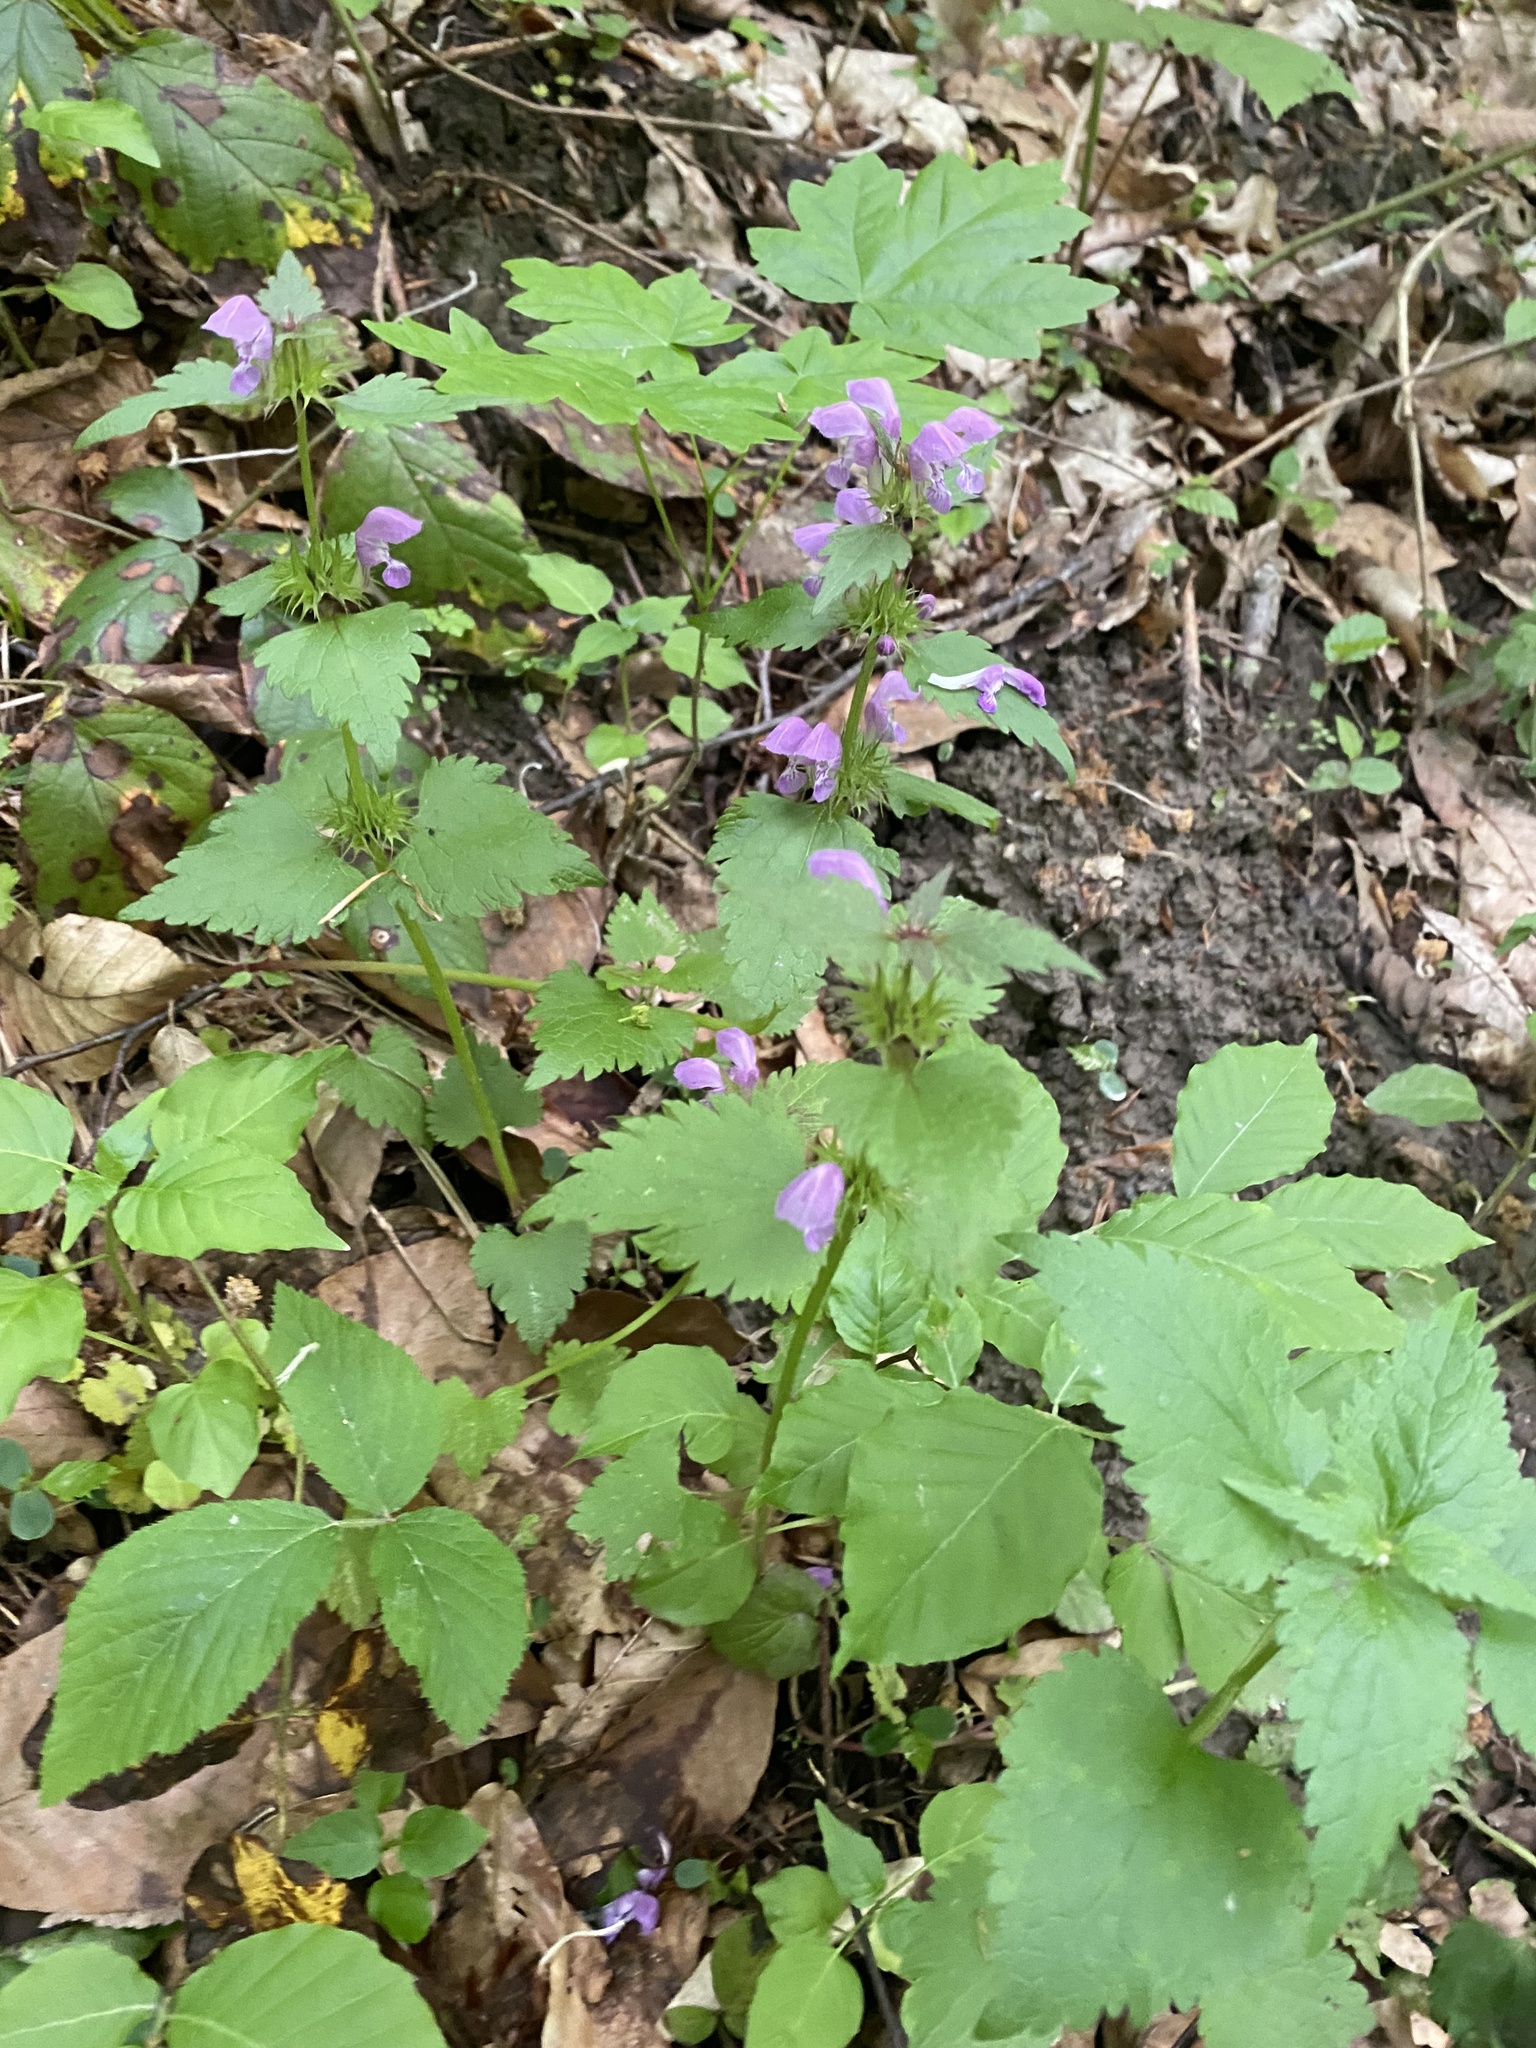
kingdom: Plantae
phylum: Tracheophyta
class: Magnoliopsida
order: Lamiales
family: Lamiaceae
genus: Lamium
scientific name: Lamium maculatum
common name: Spotted dead-nettle
